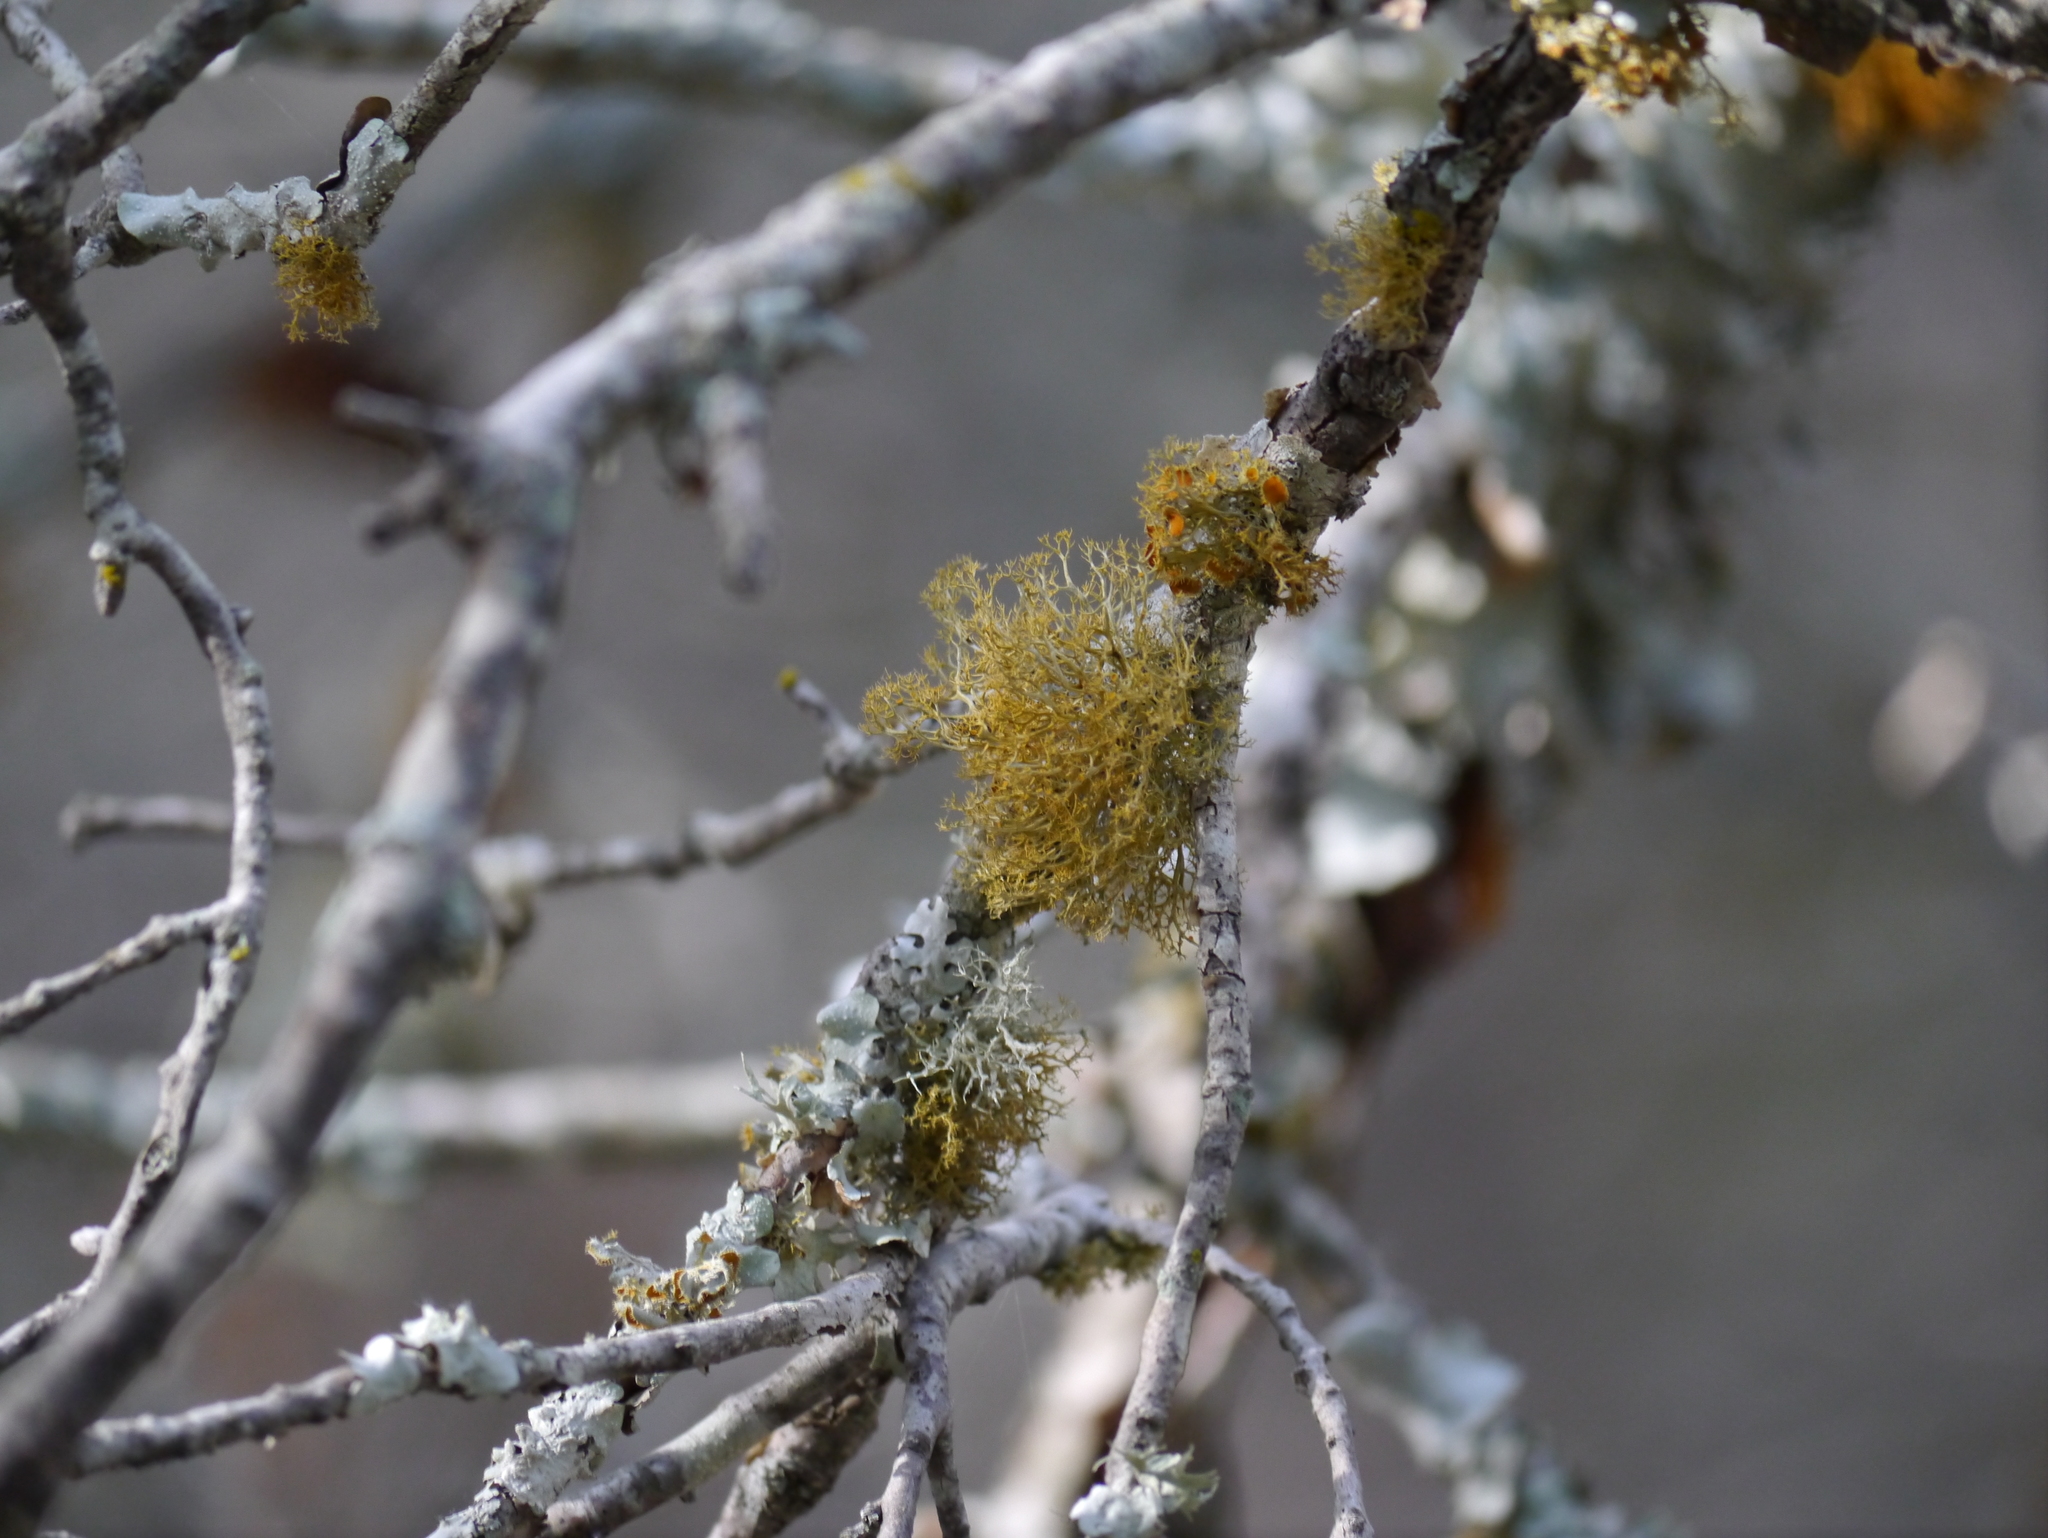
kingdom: Fungi
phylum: Ascomycota
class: Lecanoromycetes
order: Teloschistales
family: Teloschistaceae
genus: Niorma
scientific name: Niorma chrysophthalma
